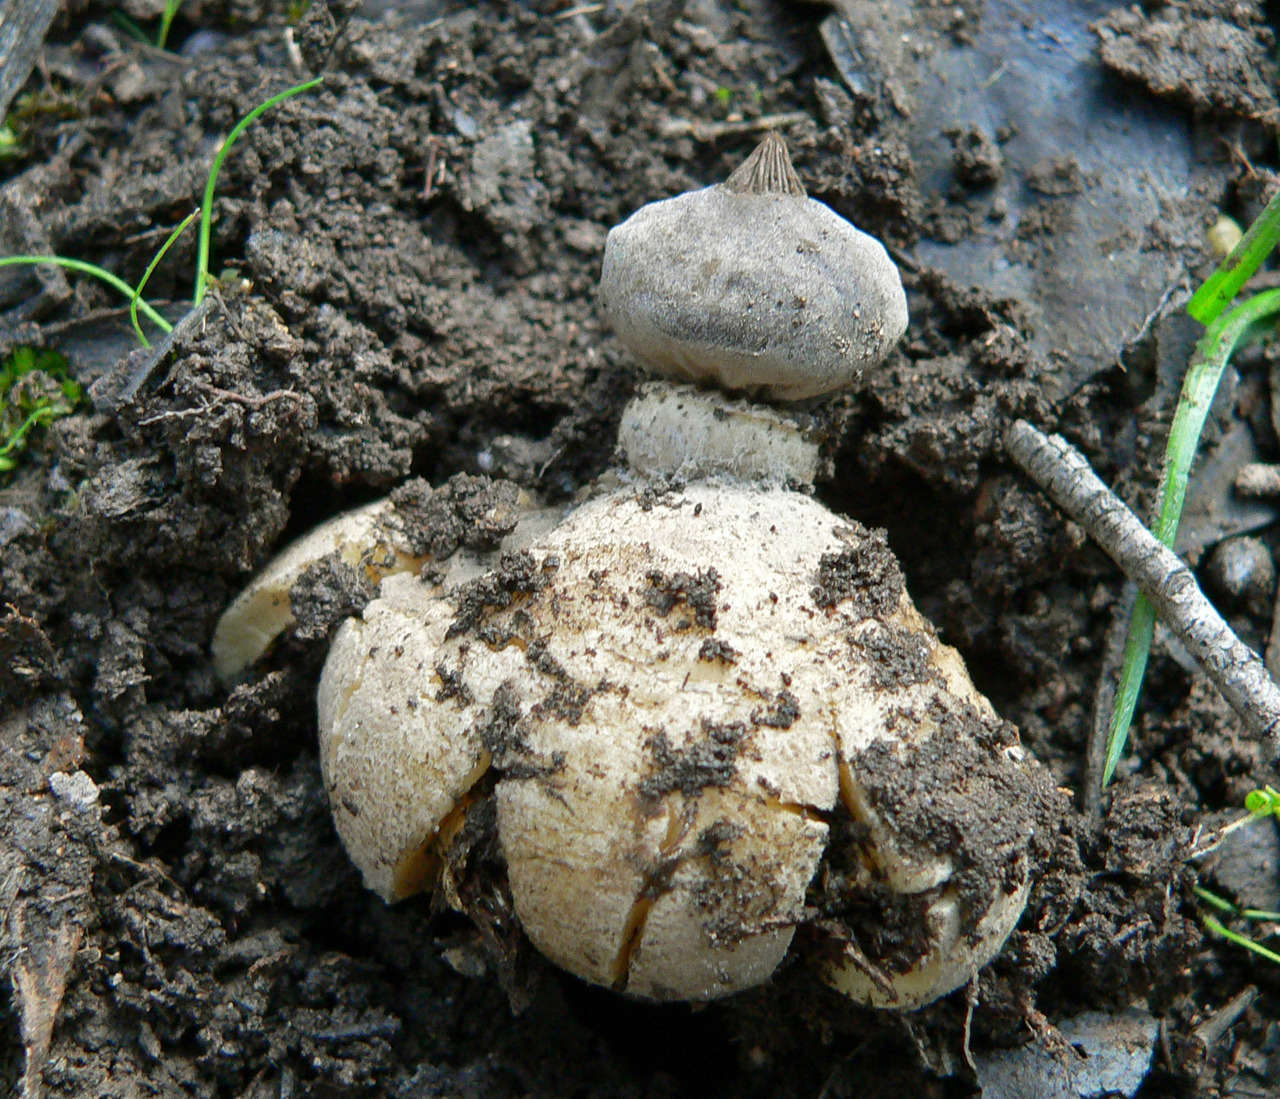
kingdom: Fungi
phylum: Basidiomycota
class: Agaricomycetes
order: Geastrales
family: Geastraceae
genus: Geastrum
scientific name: Geastrum pectinatum
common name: Beaked earthstar
